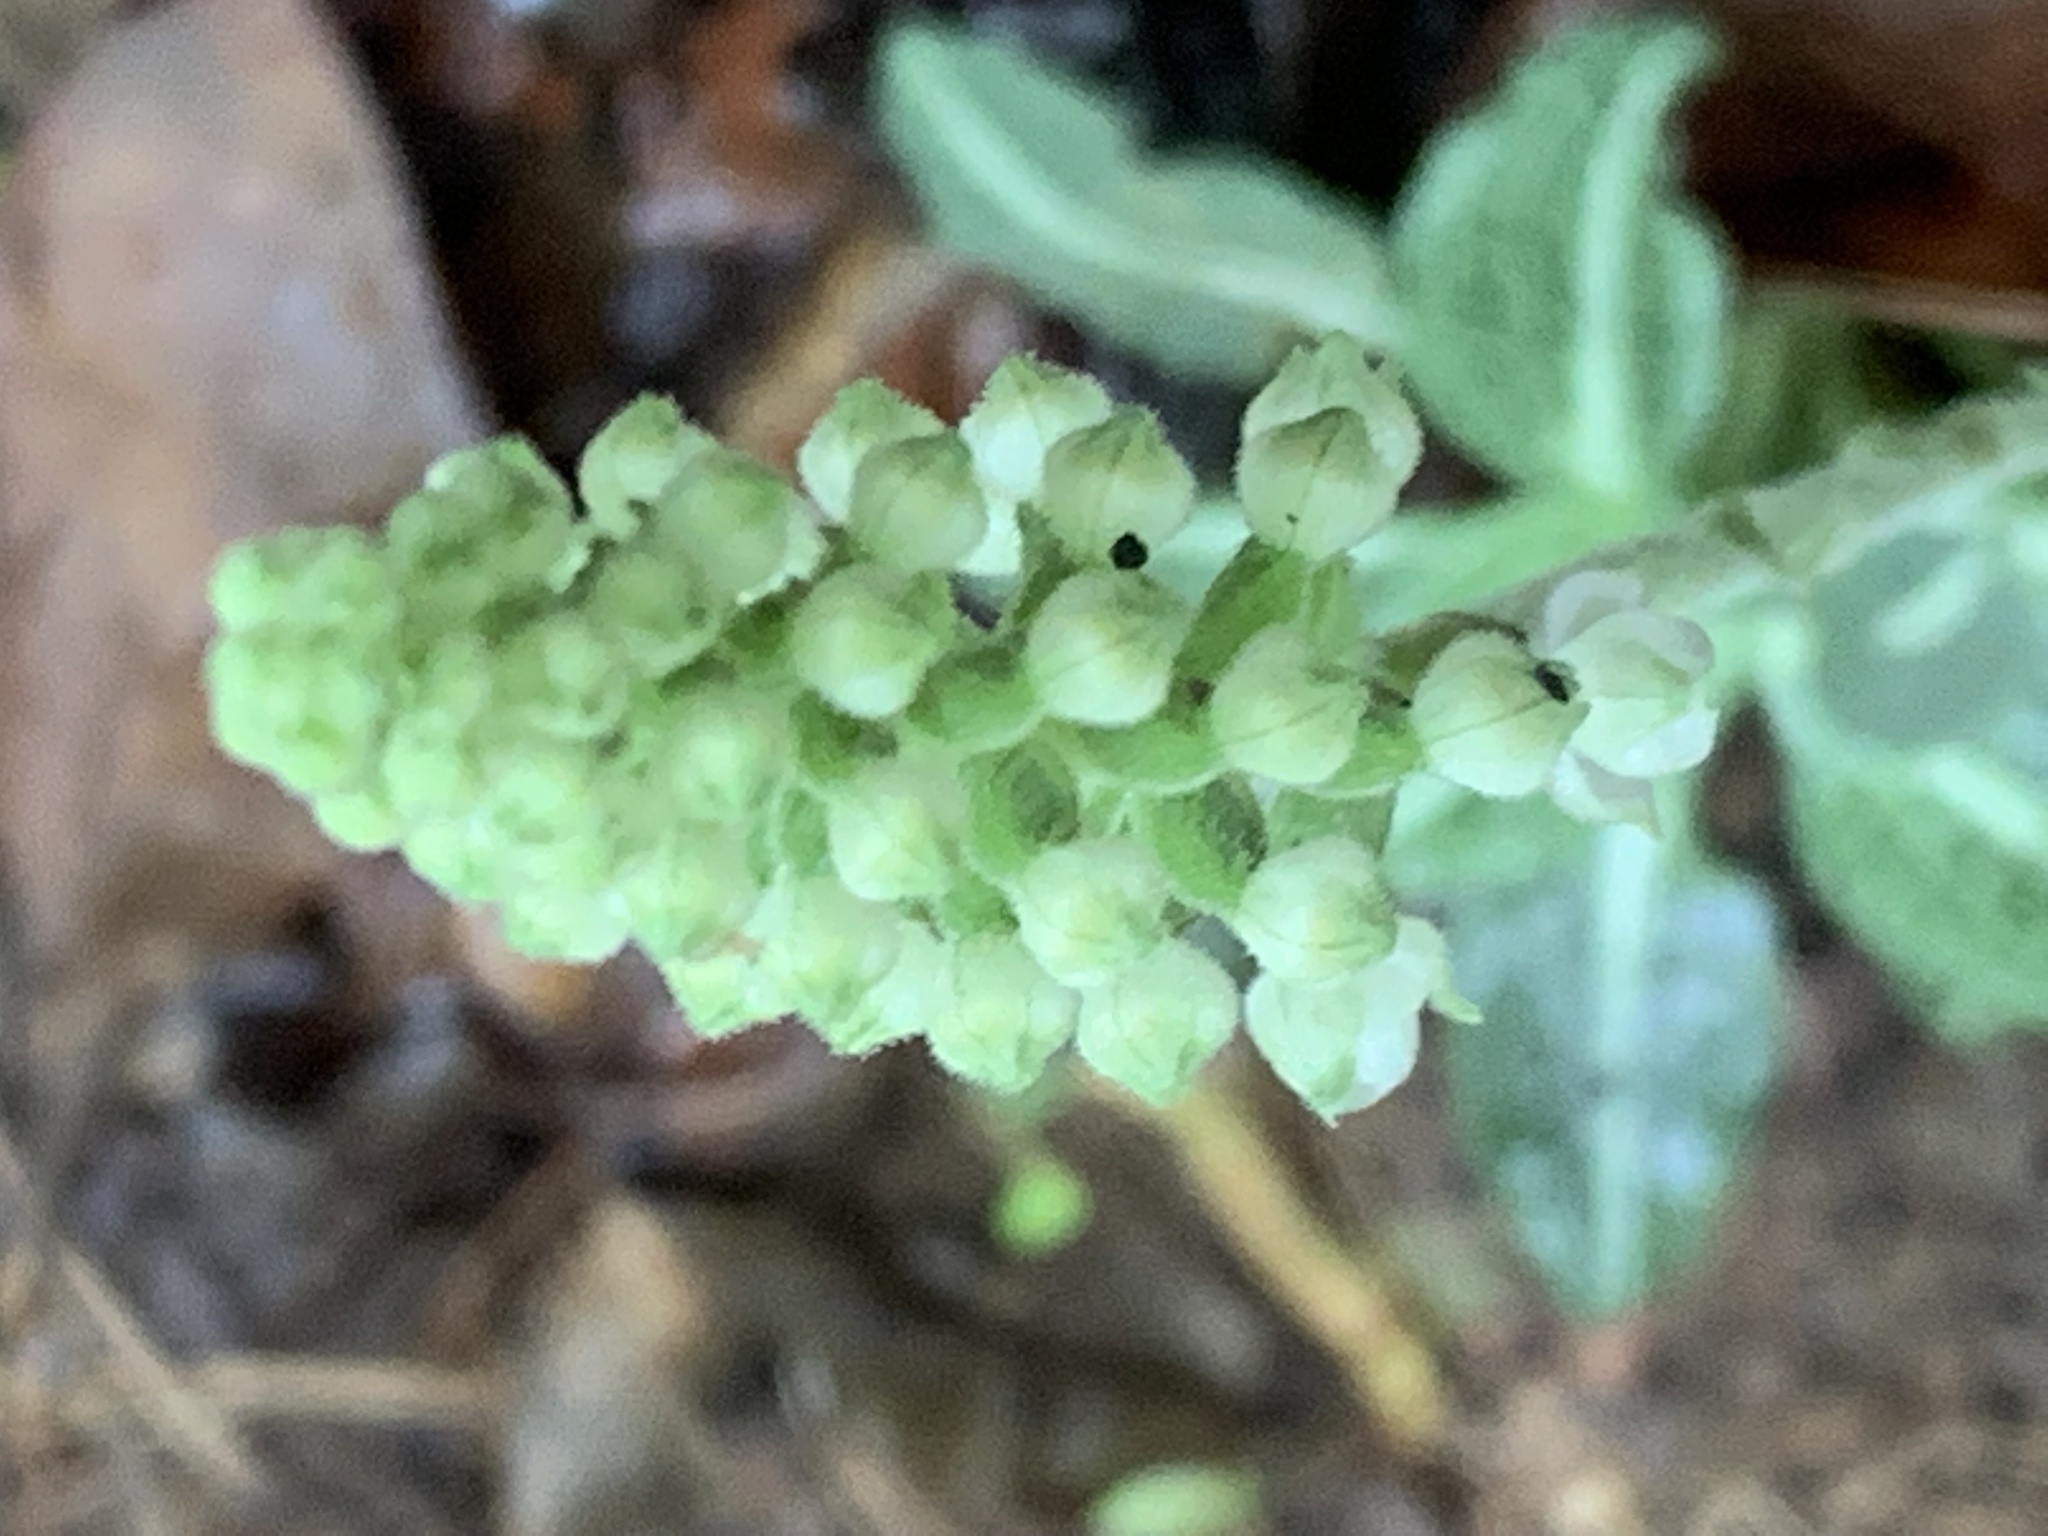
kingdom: Plantae
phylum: Tracheophyta
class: Liliopsida
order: Asparagales
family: Orchidaceae
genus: Goodyera
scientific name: Goodyera pubescens
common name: Downy rattlesnake-plantain
